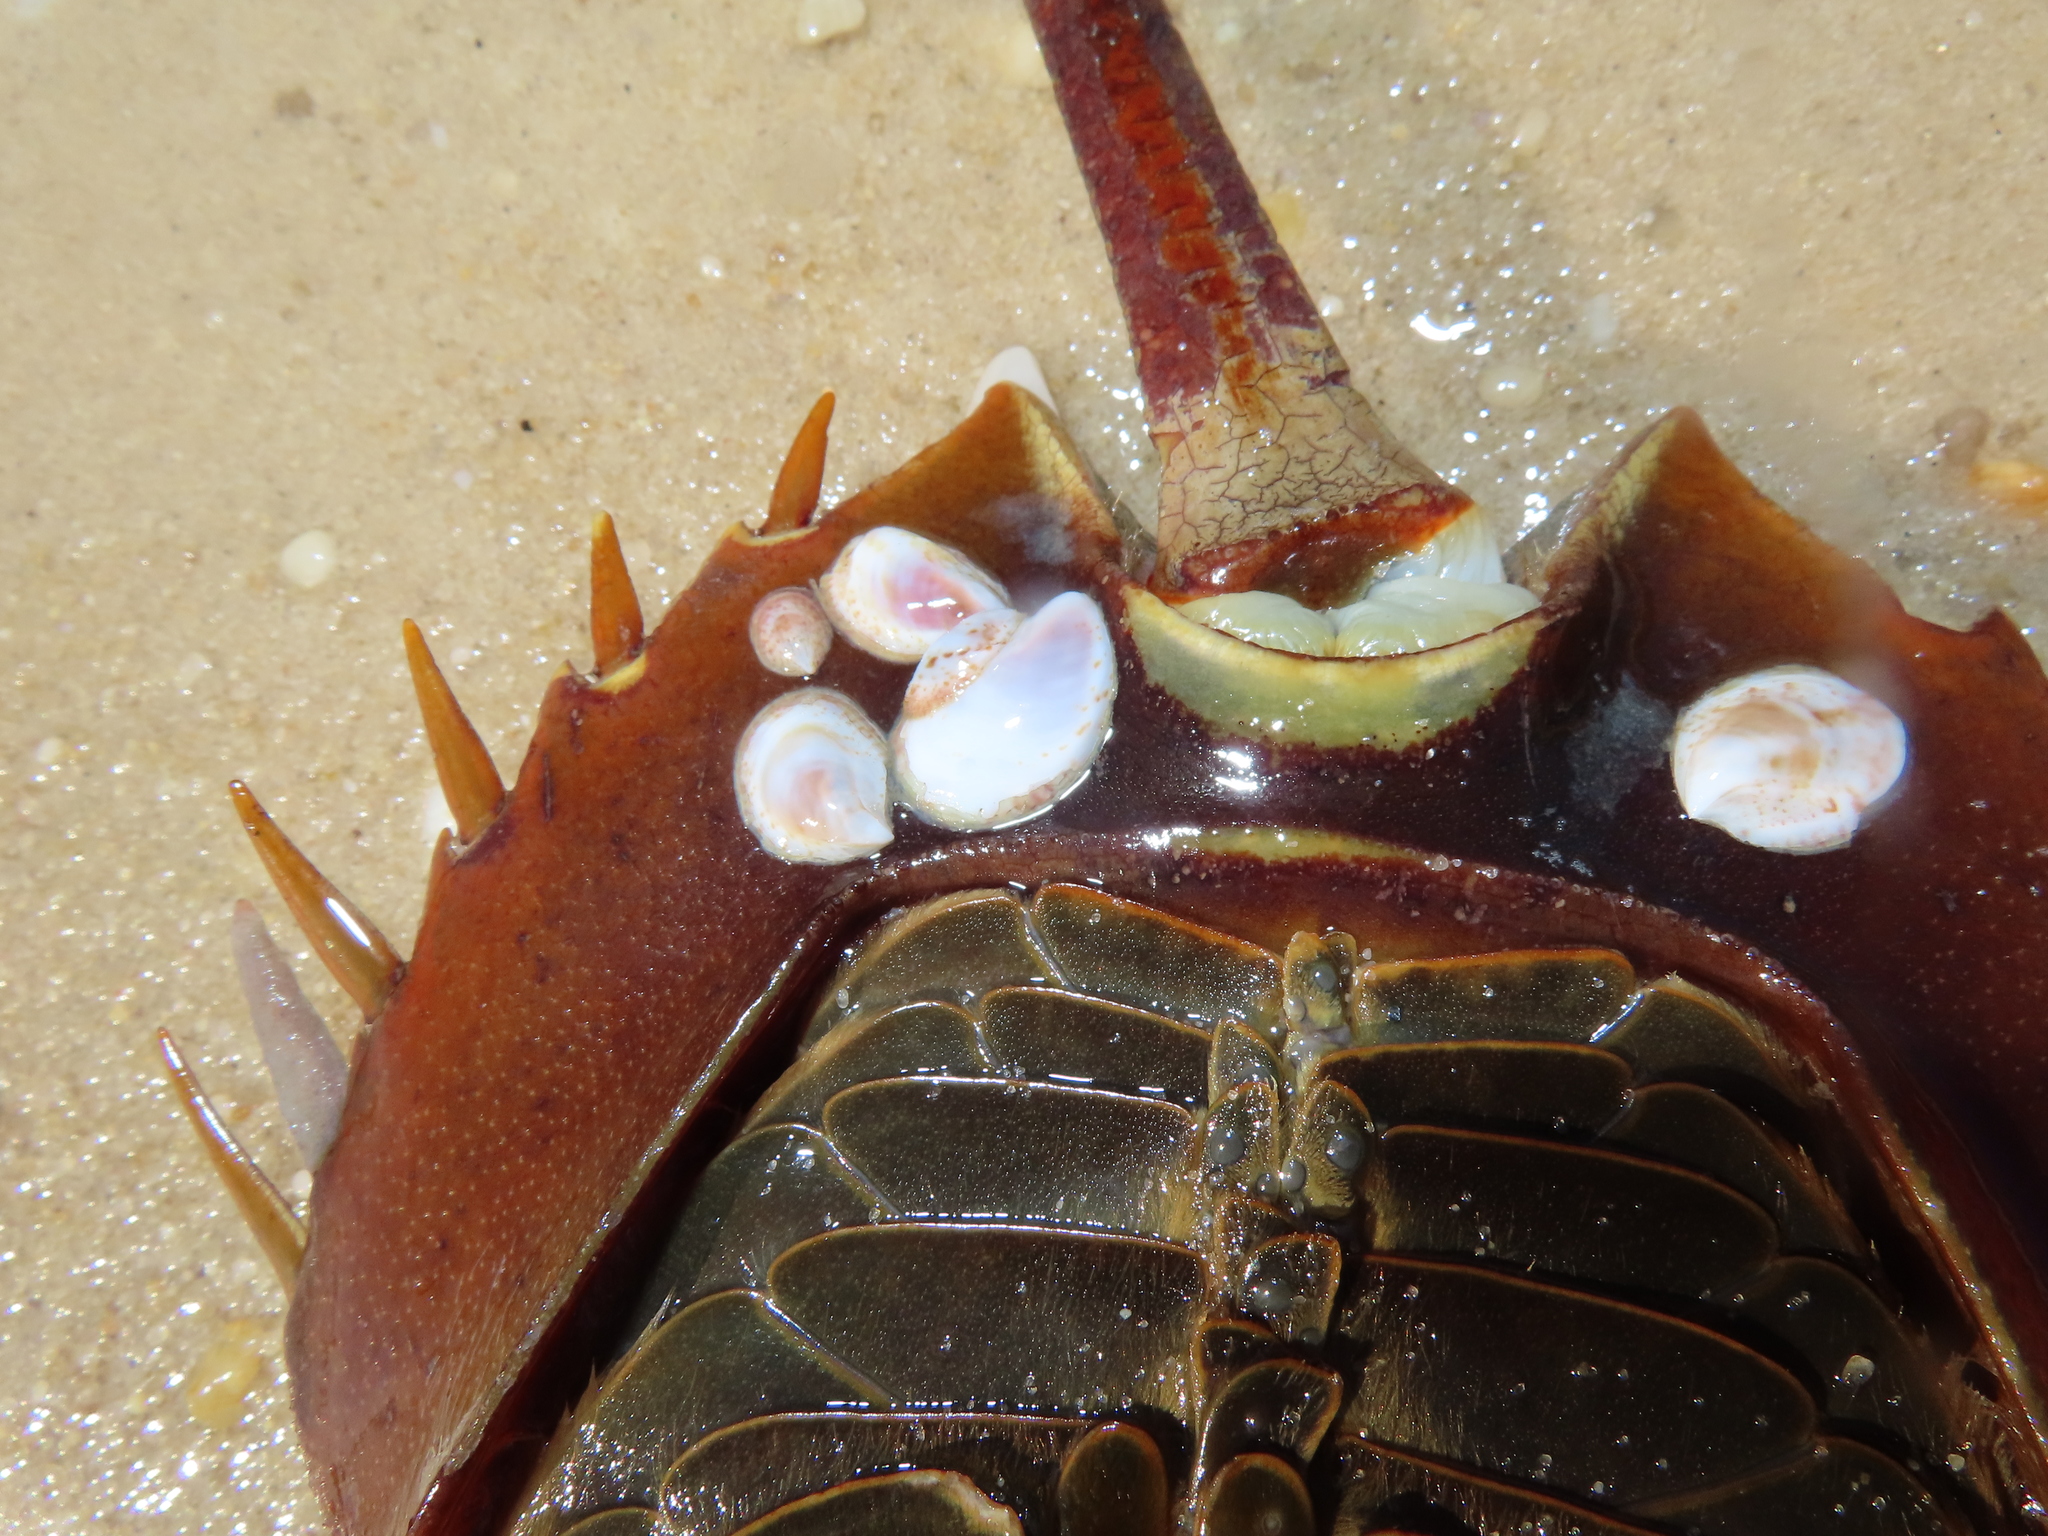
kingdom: Animalia
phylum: Mollusca
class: Gastropoda
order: Littorinimorpha
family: Calyptraeidae
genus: Crepidula
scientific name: Crepidula fornicata
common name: Slipper limpet
